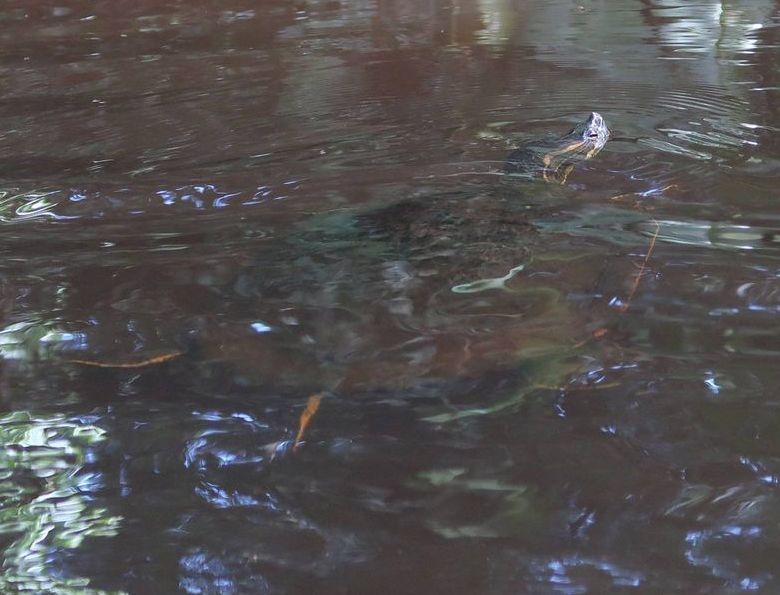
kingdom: Animalia
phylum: Chordata
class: Testudines
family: Emydidae
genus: Trachemys
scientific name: Trachemys venusta
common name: Mesoamerican slider
